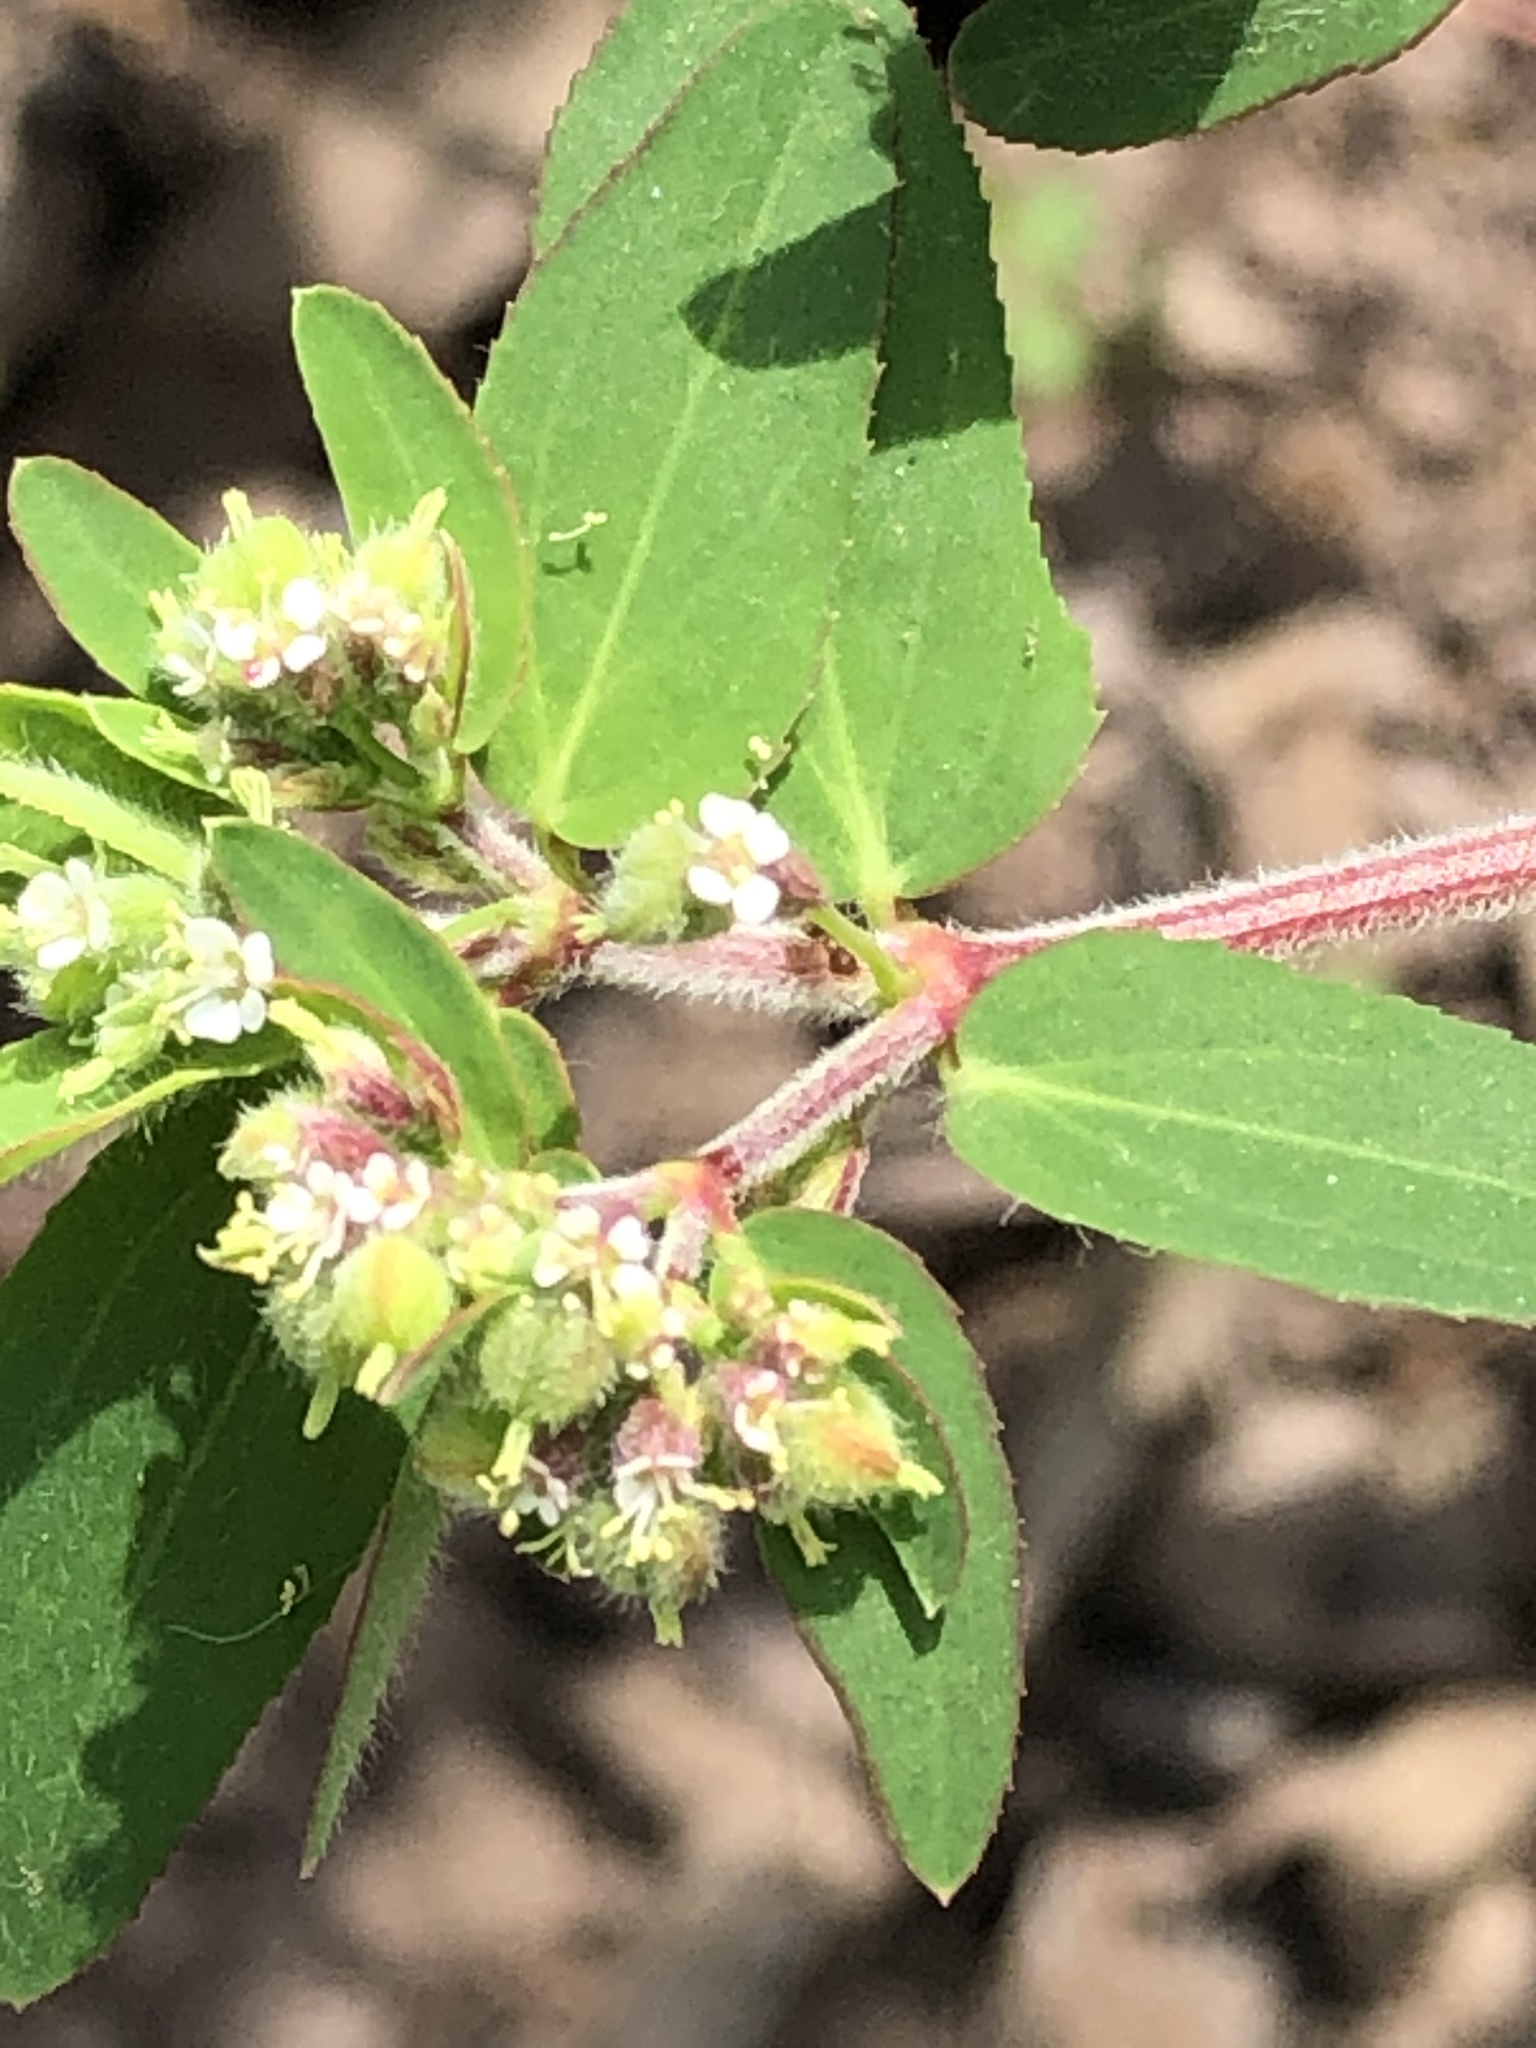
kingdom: Plantae
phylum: Tracheophyta
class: Magnoliopsida
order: Malpighiales
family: Euphorbiaceae
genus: Euphorbia
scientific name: Euphorbia lasiocarpa
